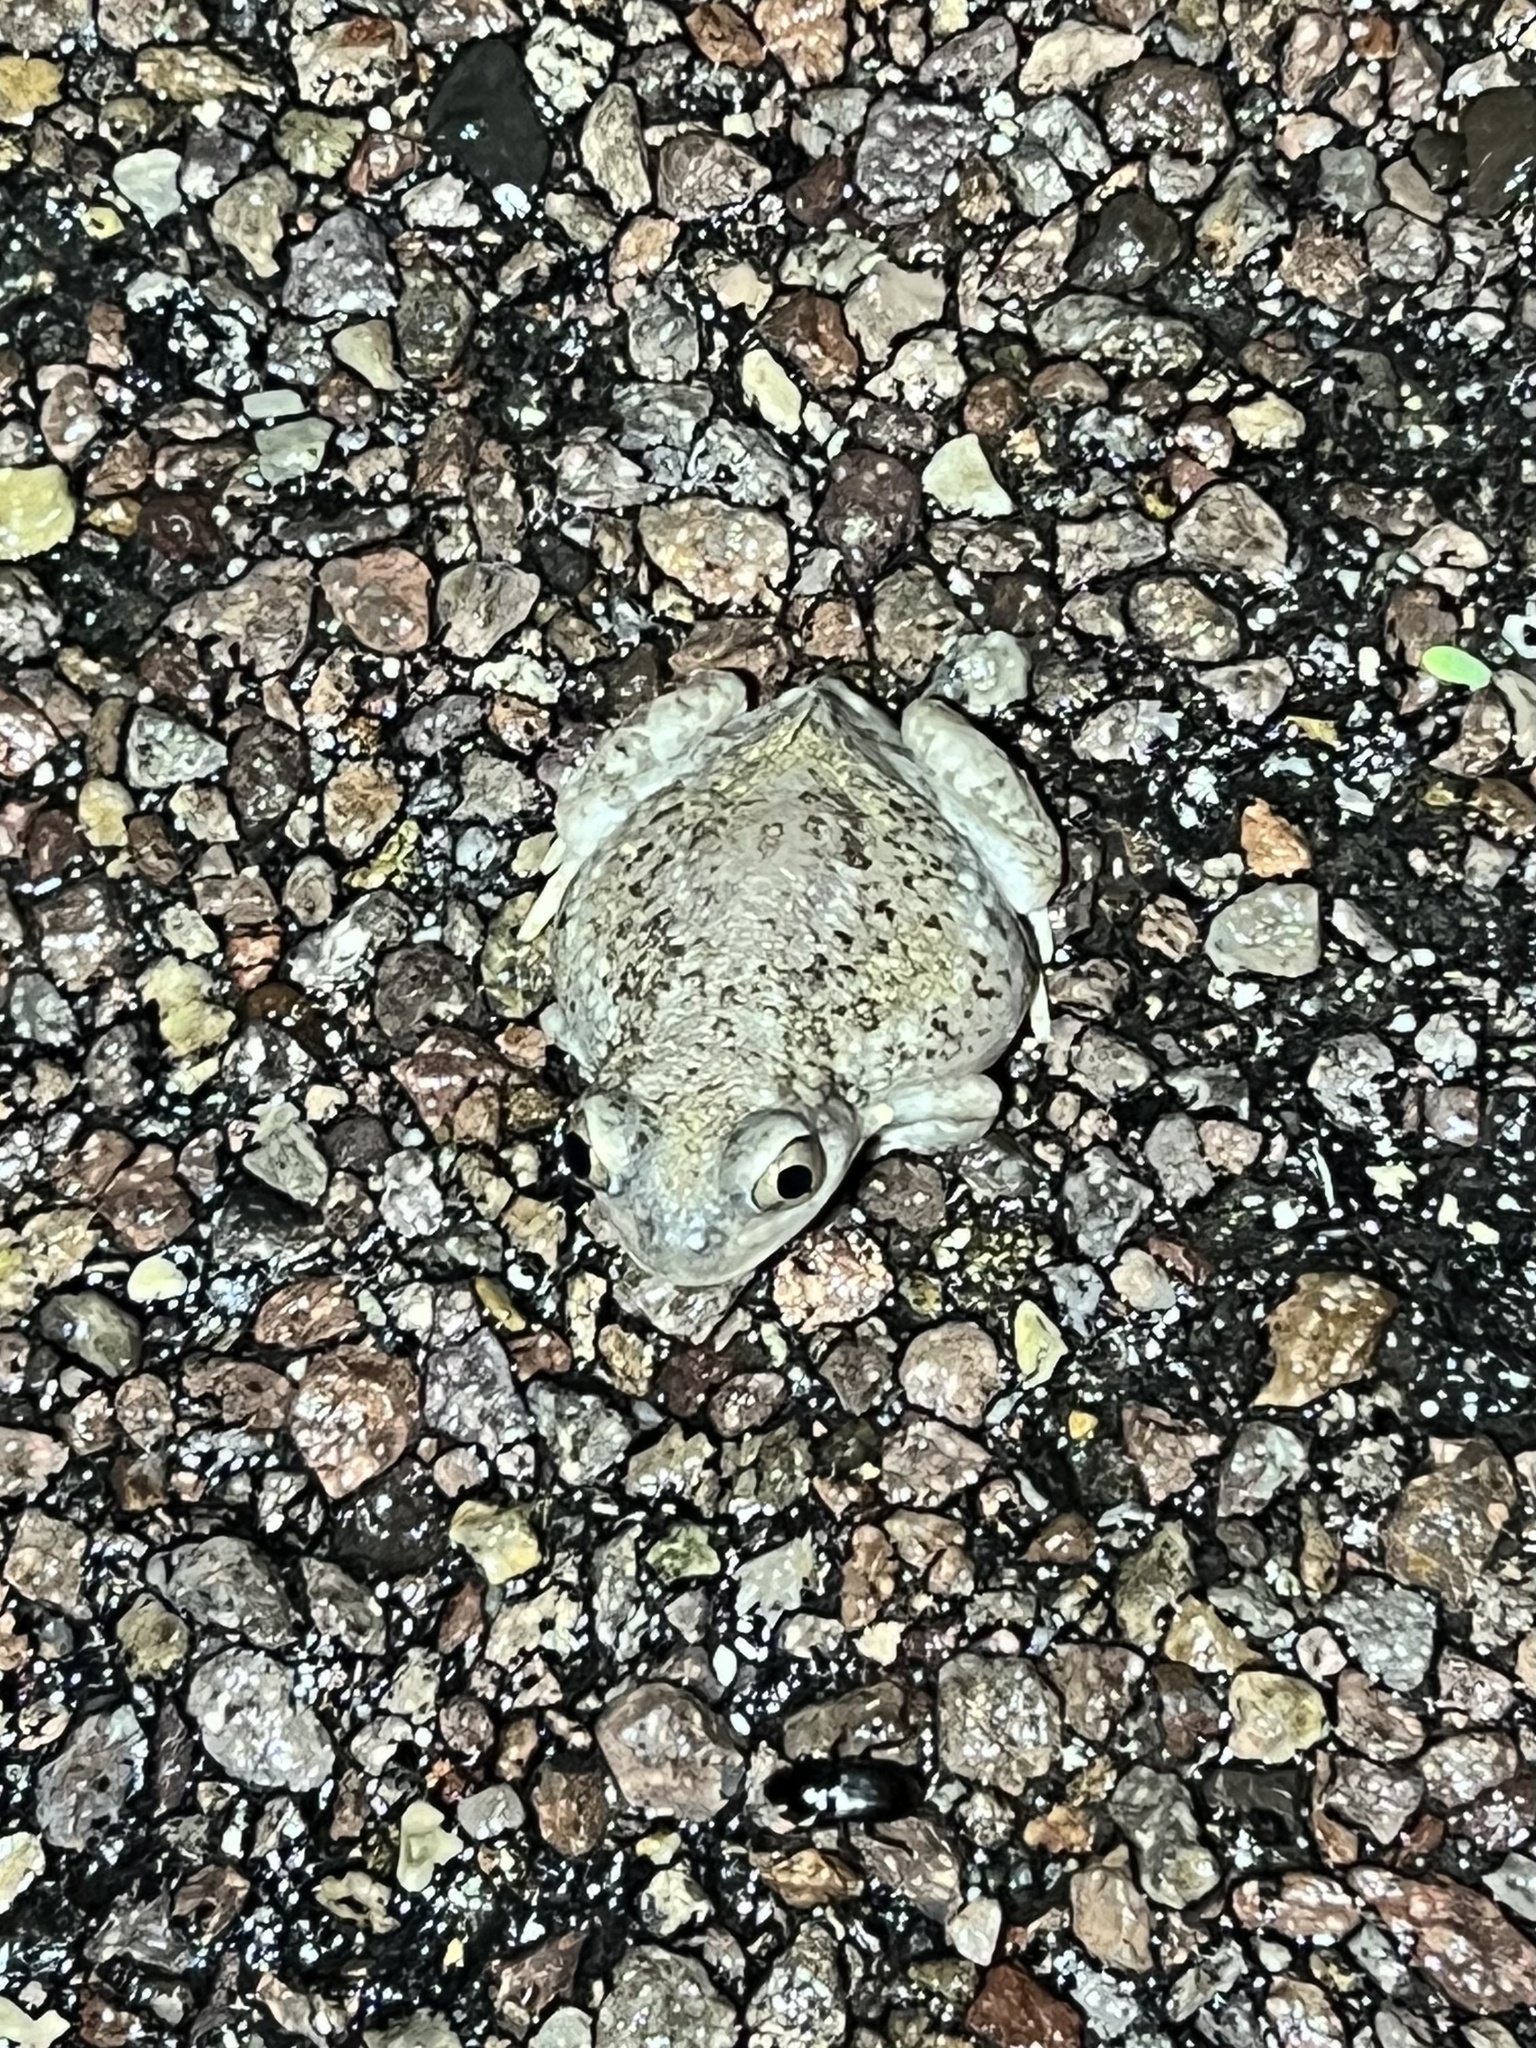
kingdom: Animalia
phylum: Chordata
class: Amphibia
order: Anura
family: Scaphiopodidae
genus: Spea
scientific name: Spea multiplicata
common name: Mexican spadefoot
